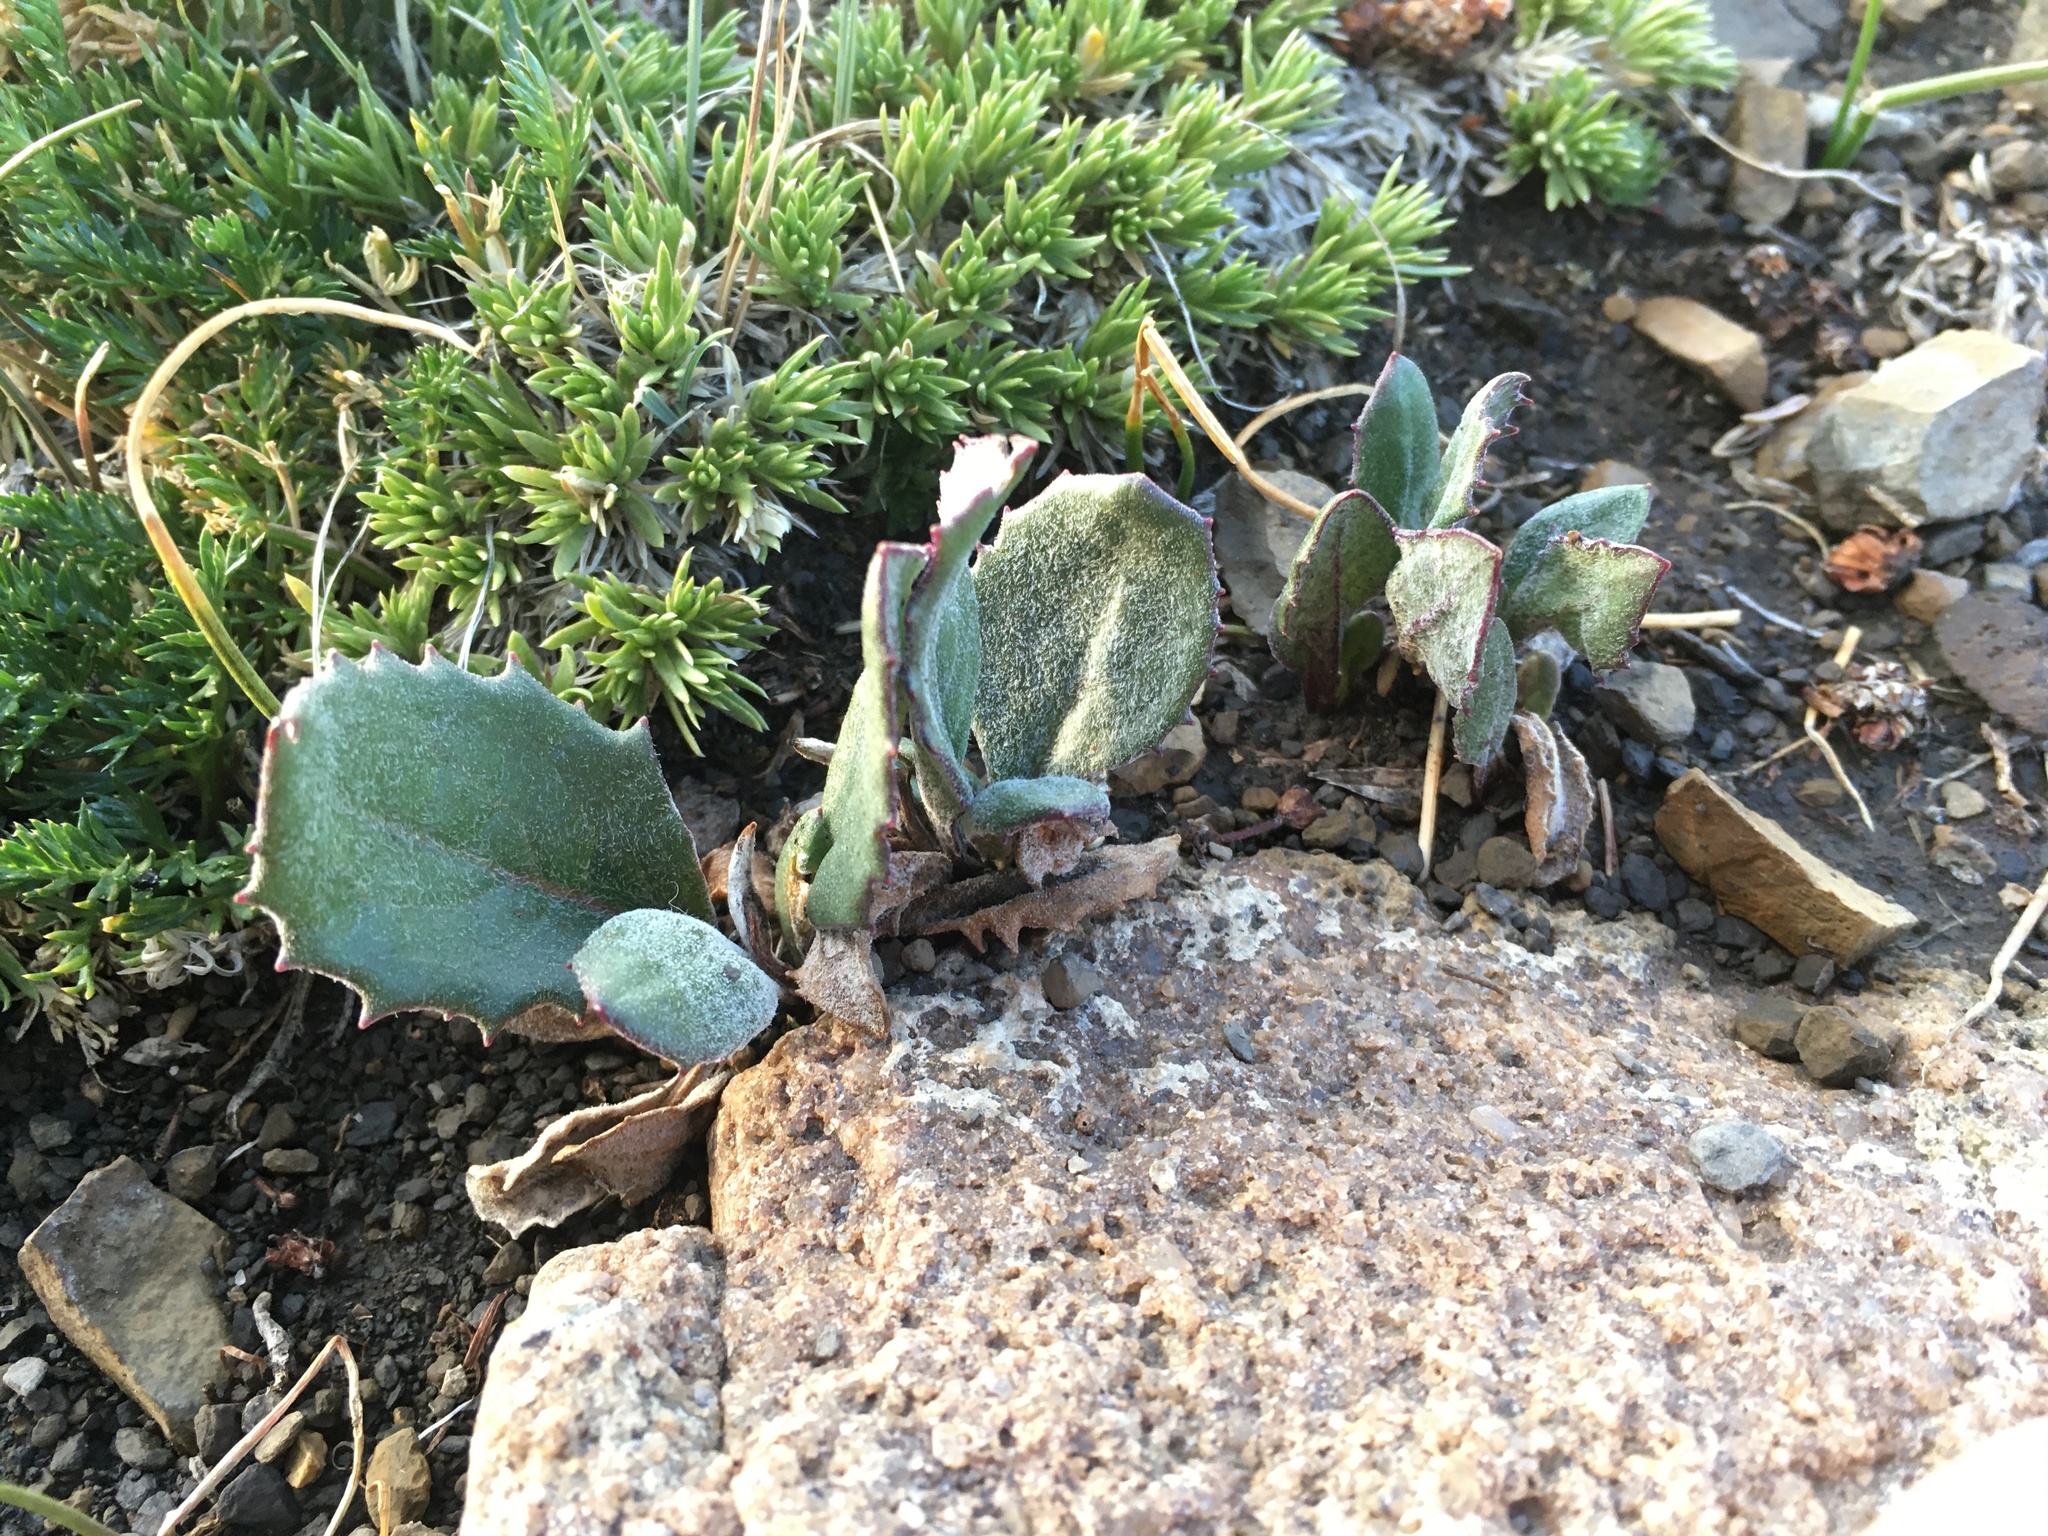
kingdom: Plantae
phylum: Tracheophyta
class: Magnoliopsida
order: Asterales
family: Asteraceae
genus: Senecio
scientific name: Senecio taraxacoides
